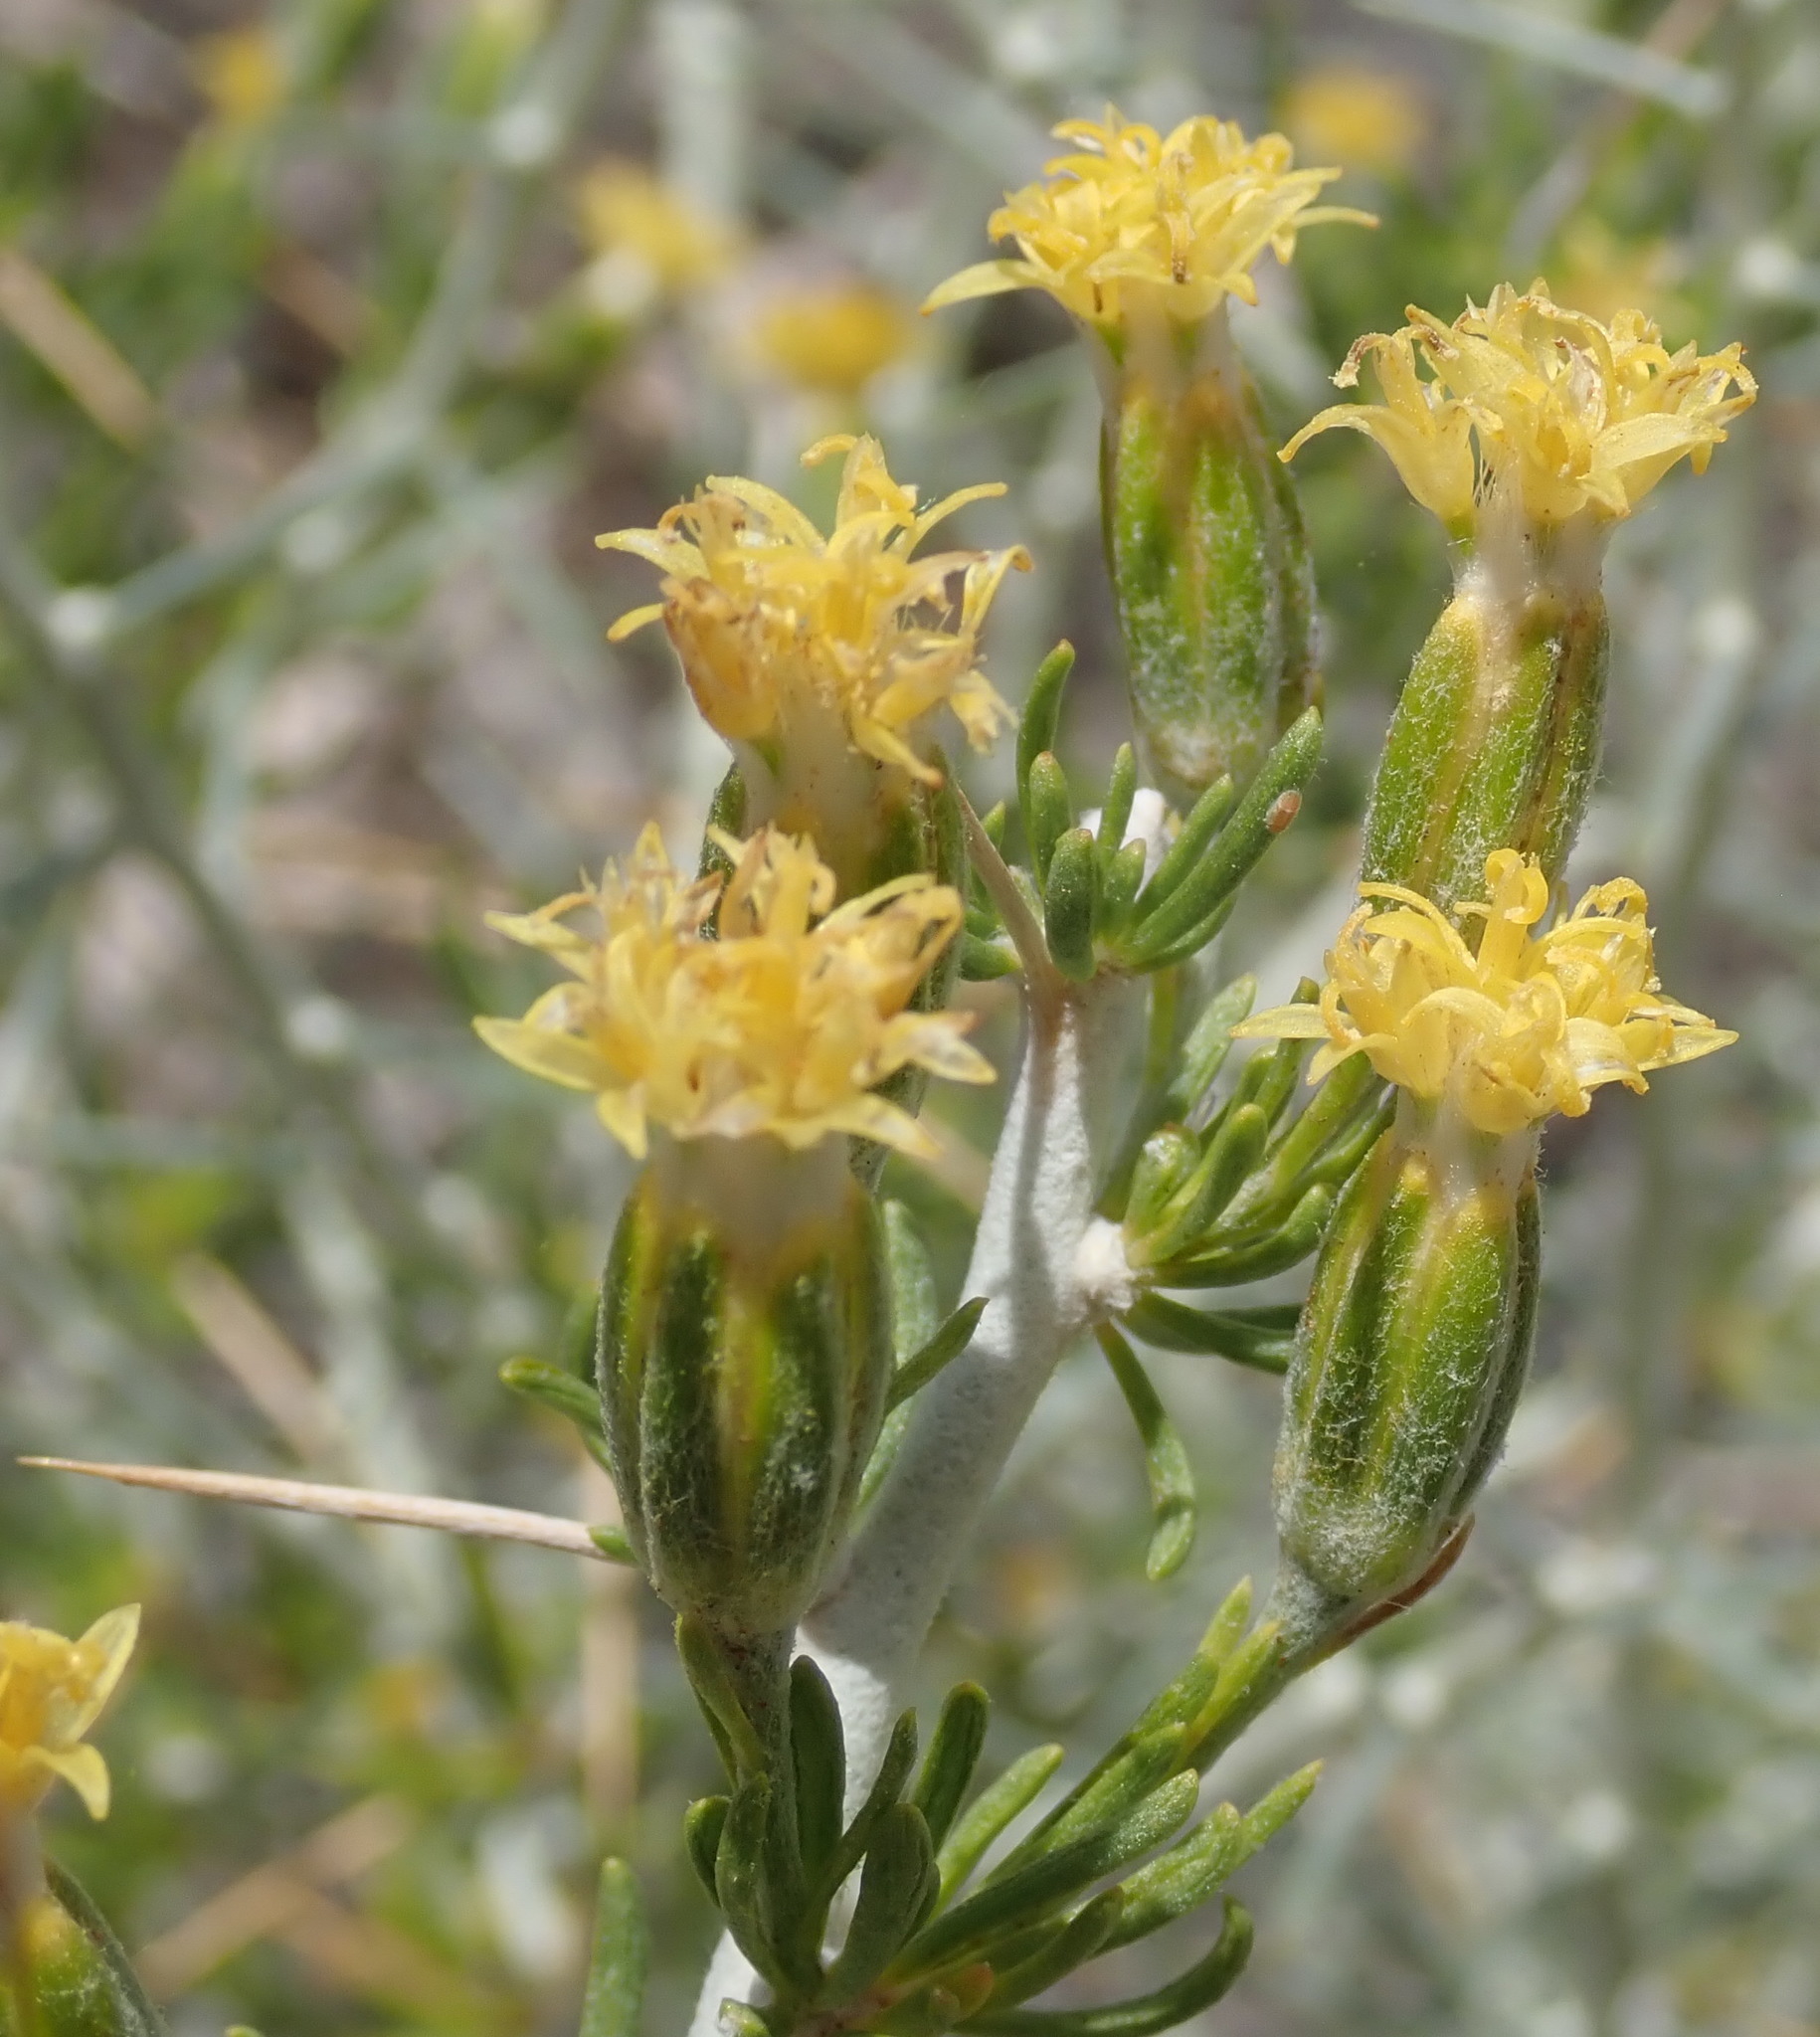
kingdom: Plantae
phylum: Tracheophyta
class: Magnoliopsida
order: Asterales
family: Asteraceae
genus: Tetradymia
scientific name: Tetradymia axillaris
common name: Long-spine horsebrush
